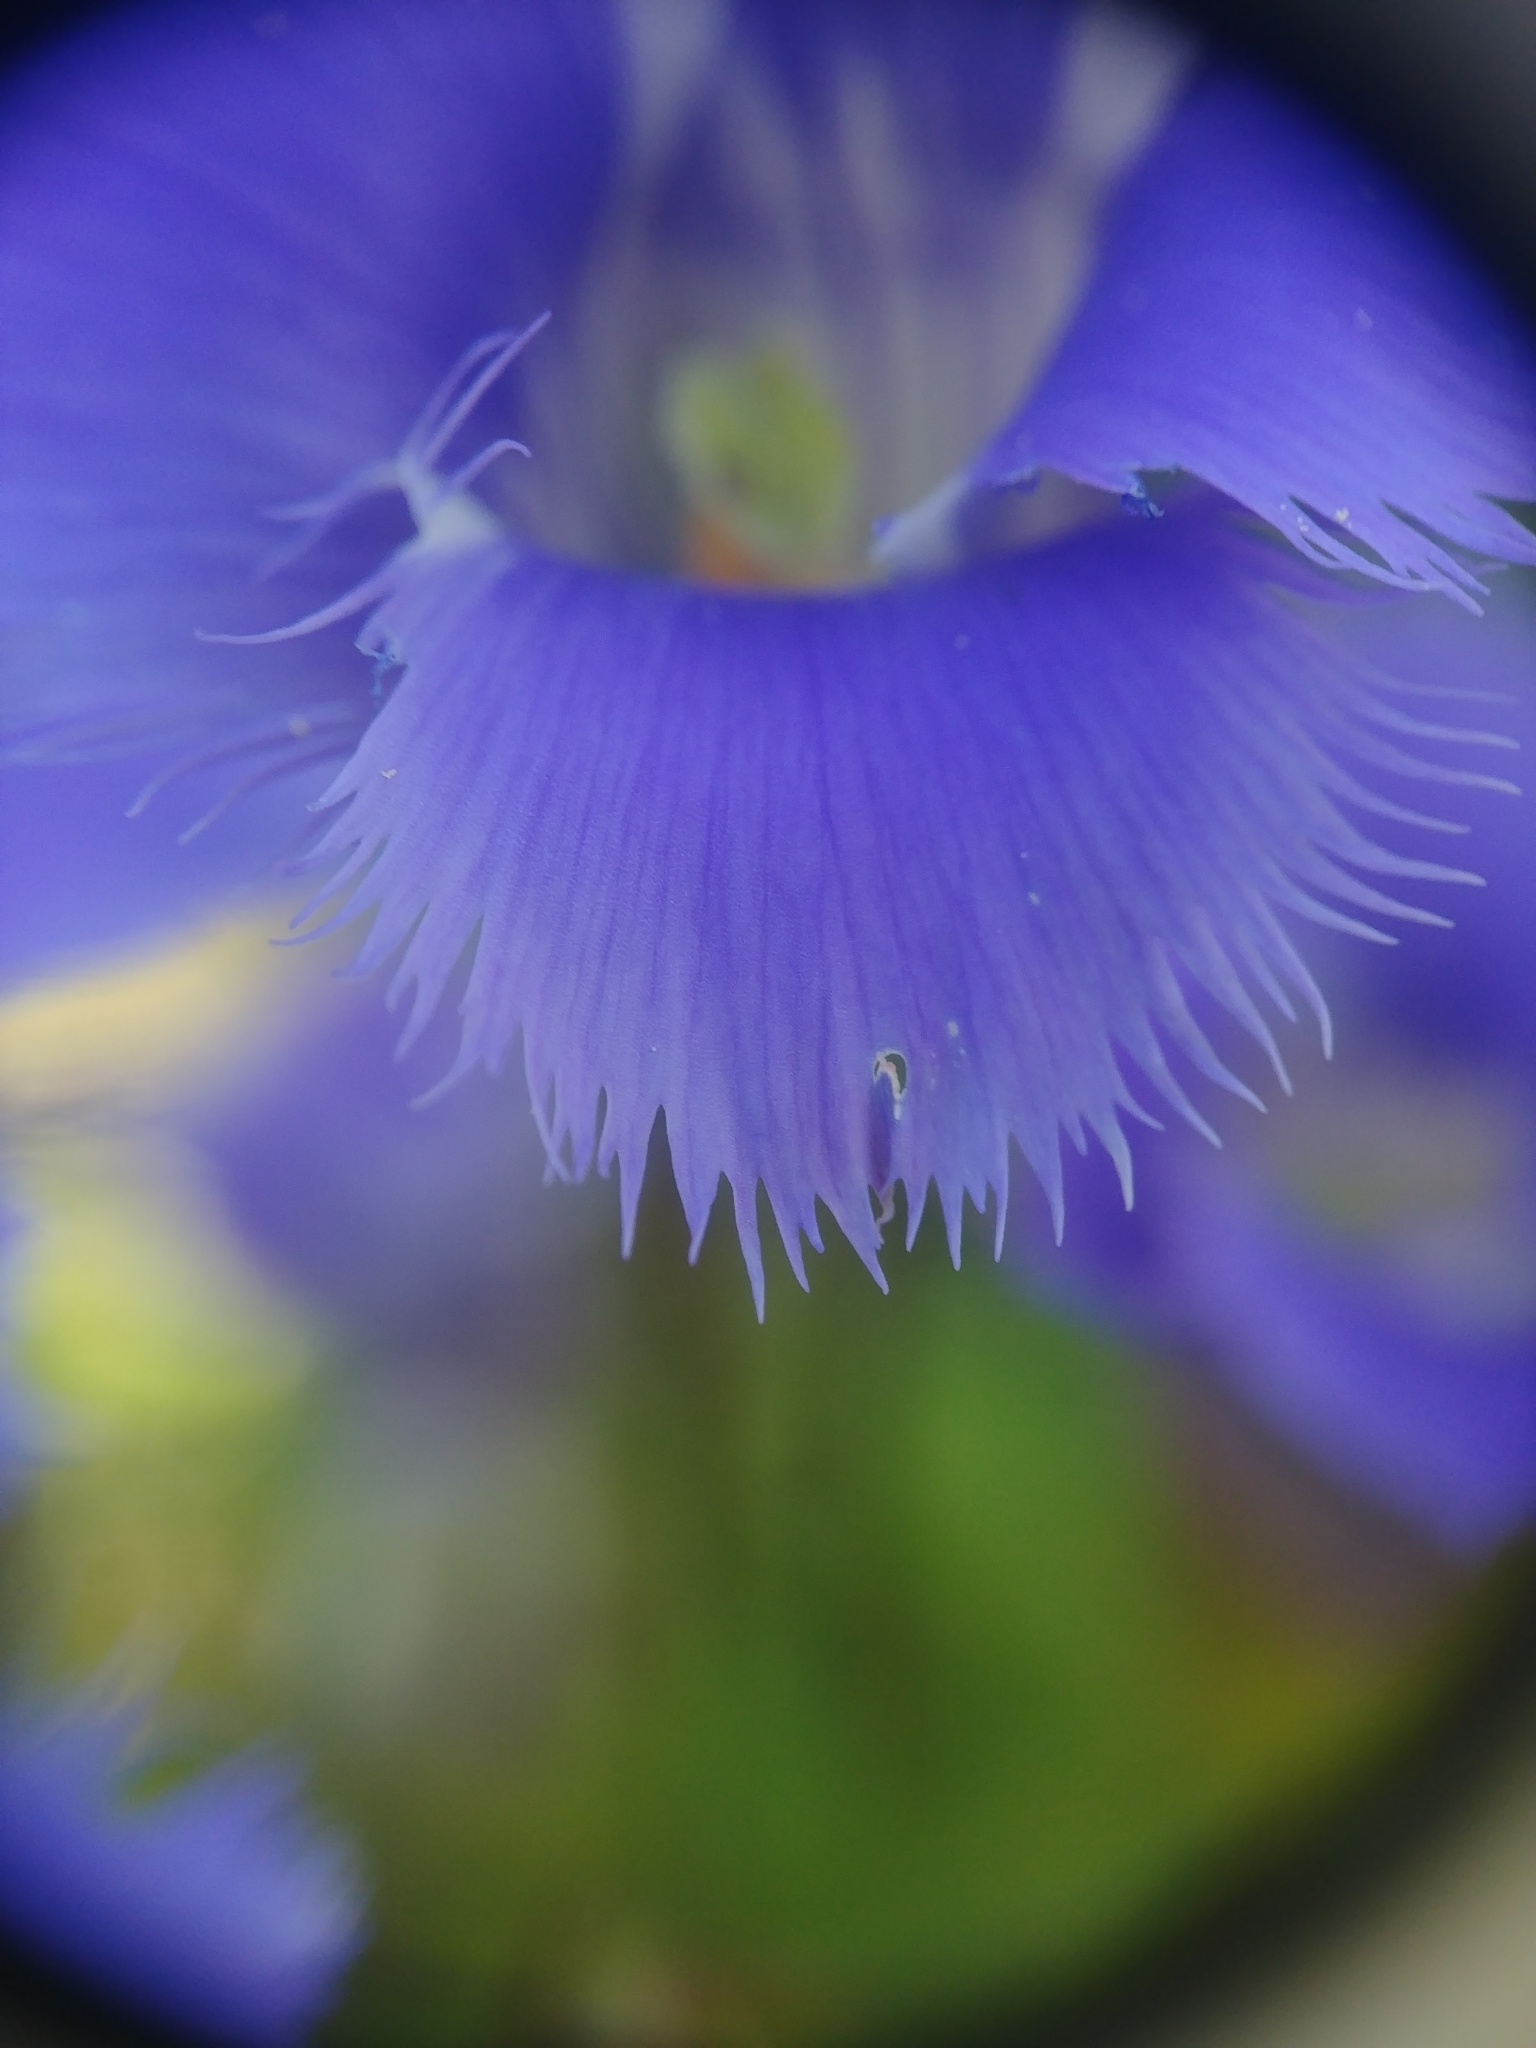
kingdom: Plantae
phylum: Tracheophyta
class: Magnoliopsida
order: Gentianales
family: Gentianaceae
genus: Gentianopsis
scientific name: Gentianopsis crinita
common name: Fringed-gentian
